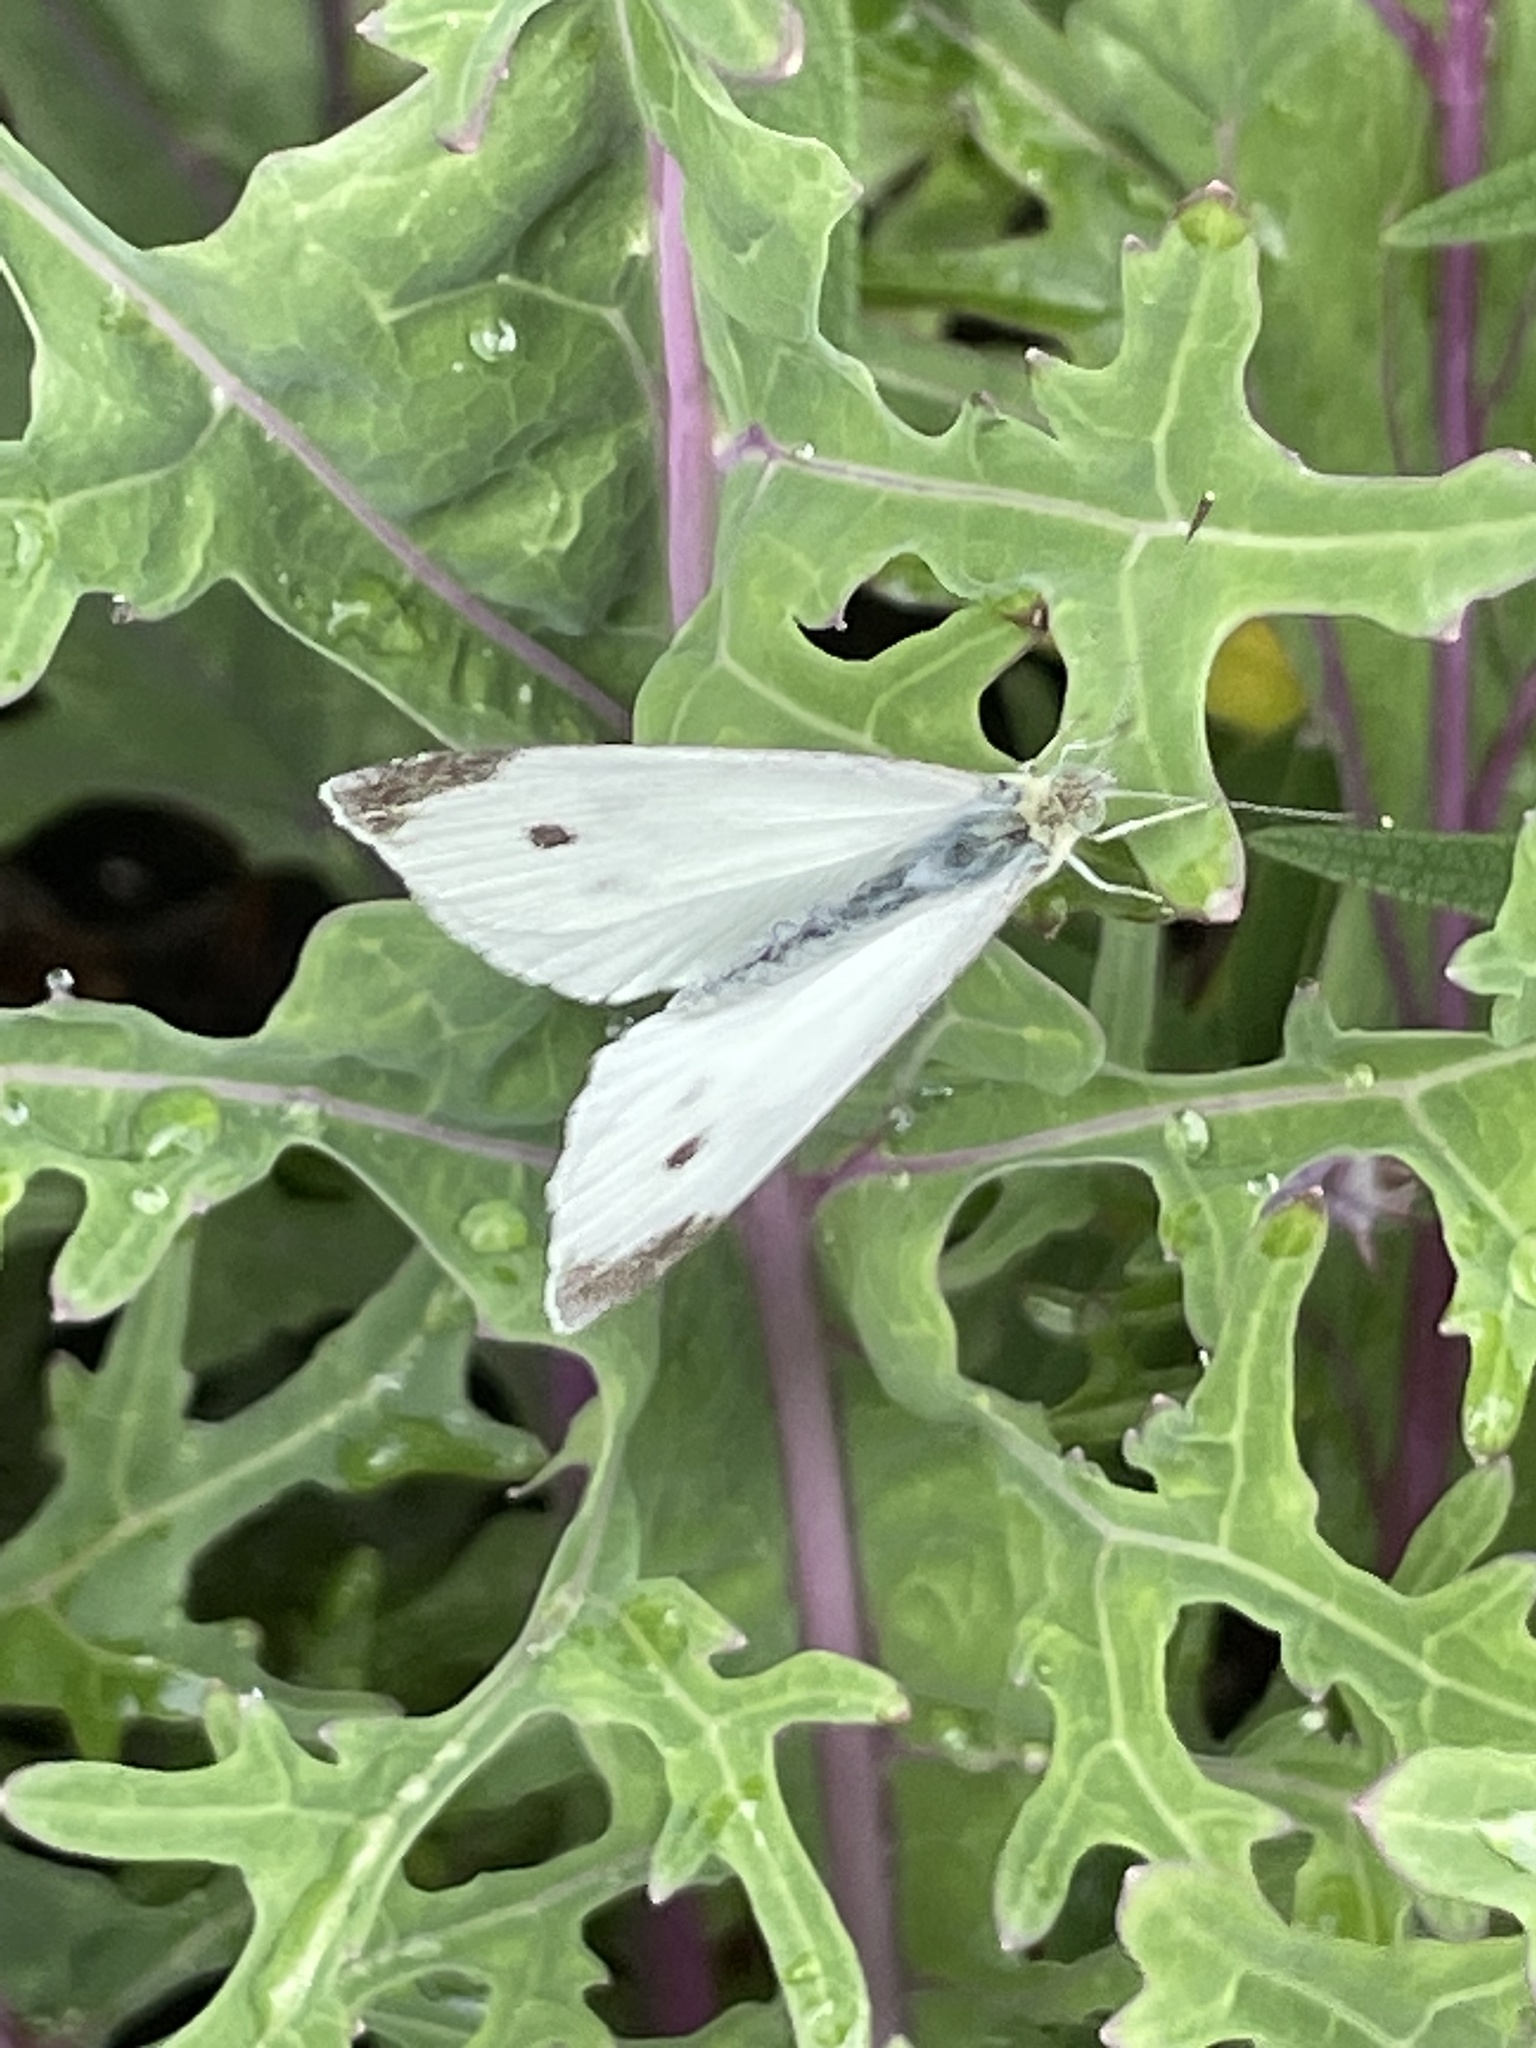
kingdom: Animalia
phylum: Arthropoda
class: Insecta
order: Lepidoptera
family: Pieridae
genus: Pieris
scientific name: Pieris rapae
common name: Small white
